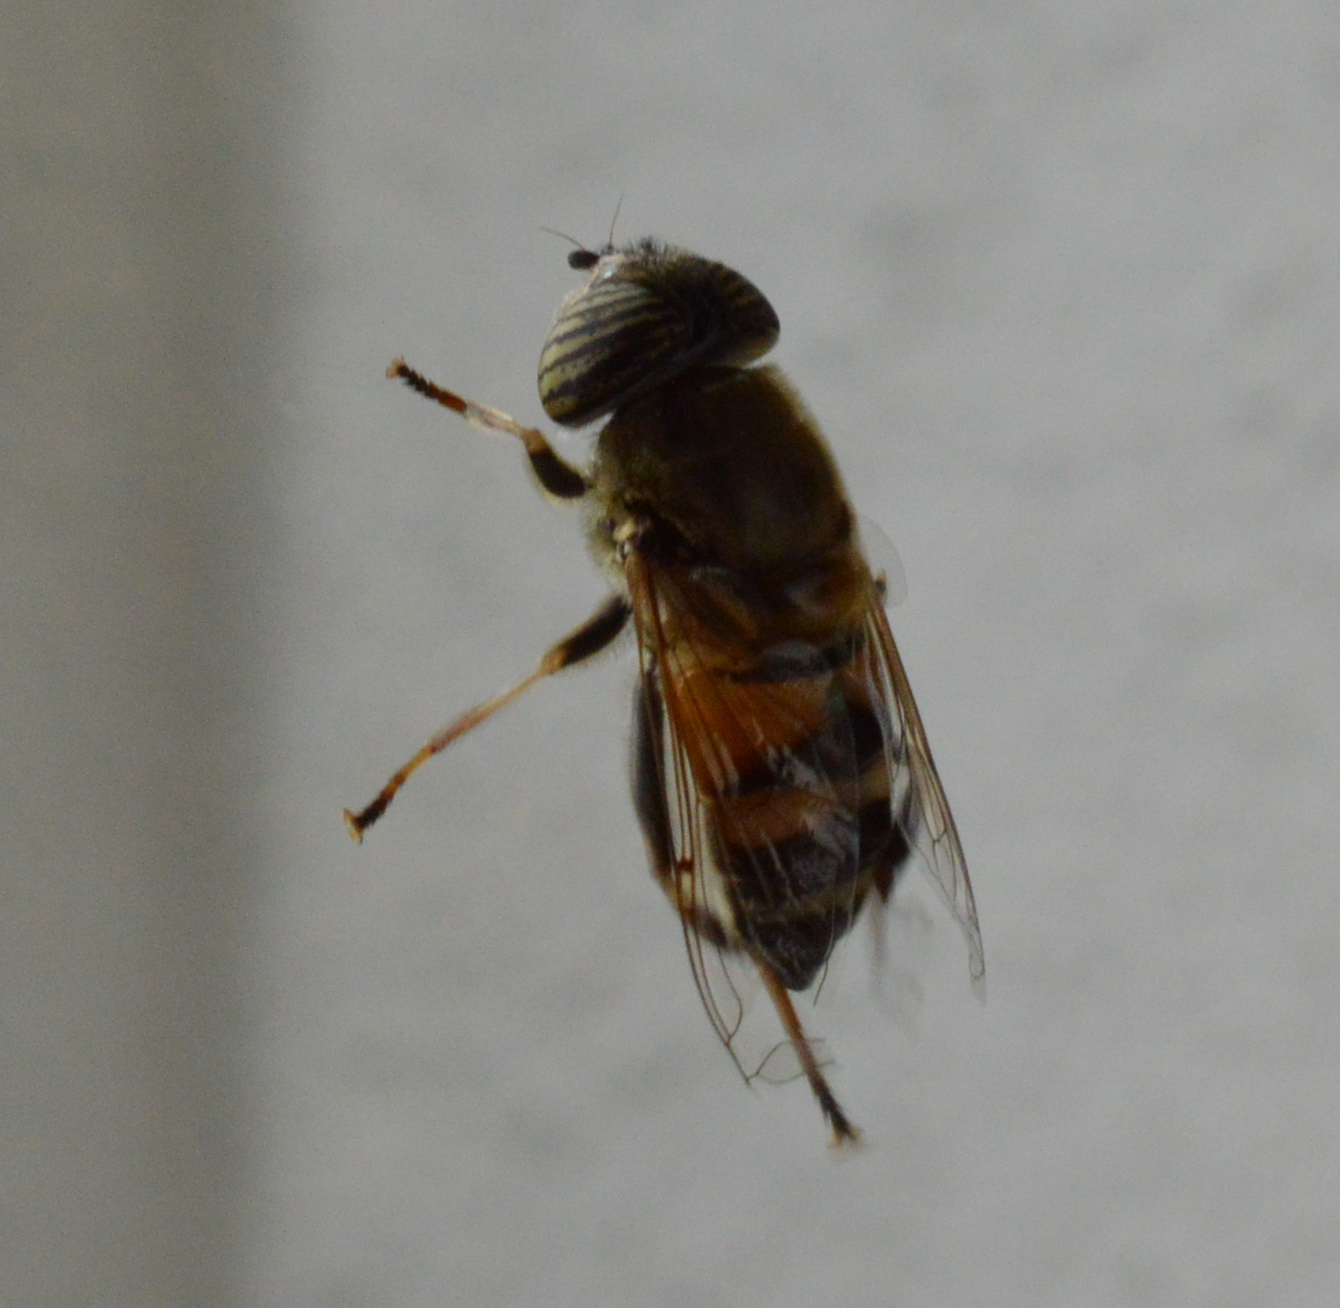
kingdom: Animalia
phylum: Arthropoda
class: Insecta
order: Diptera
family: Syrphidae
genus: Eristalinus
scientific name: Eristalinus taeniops
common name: Syrphid fly
